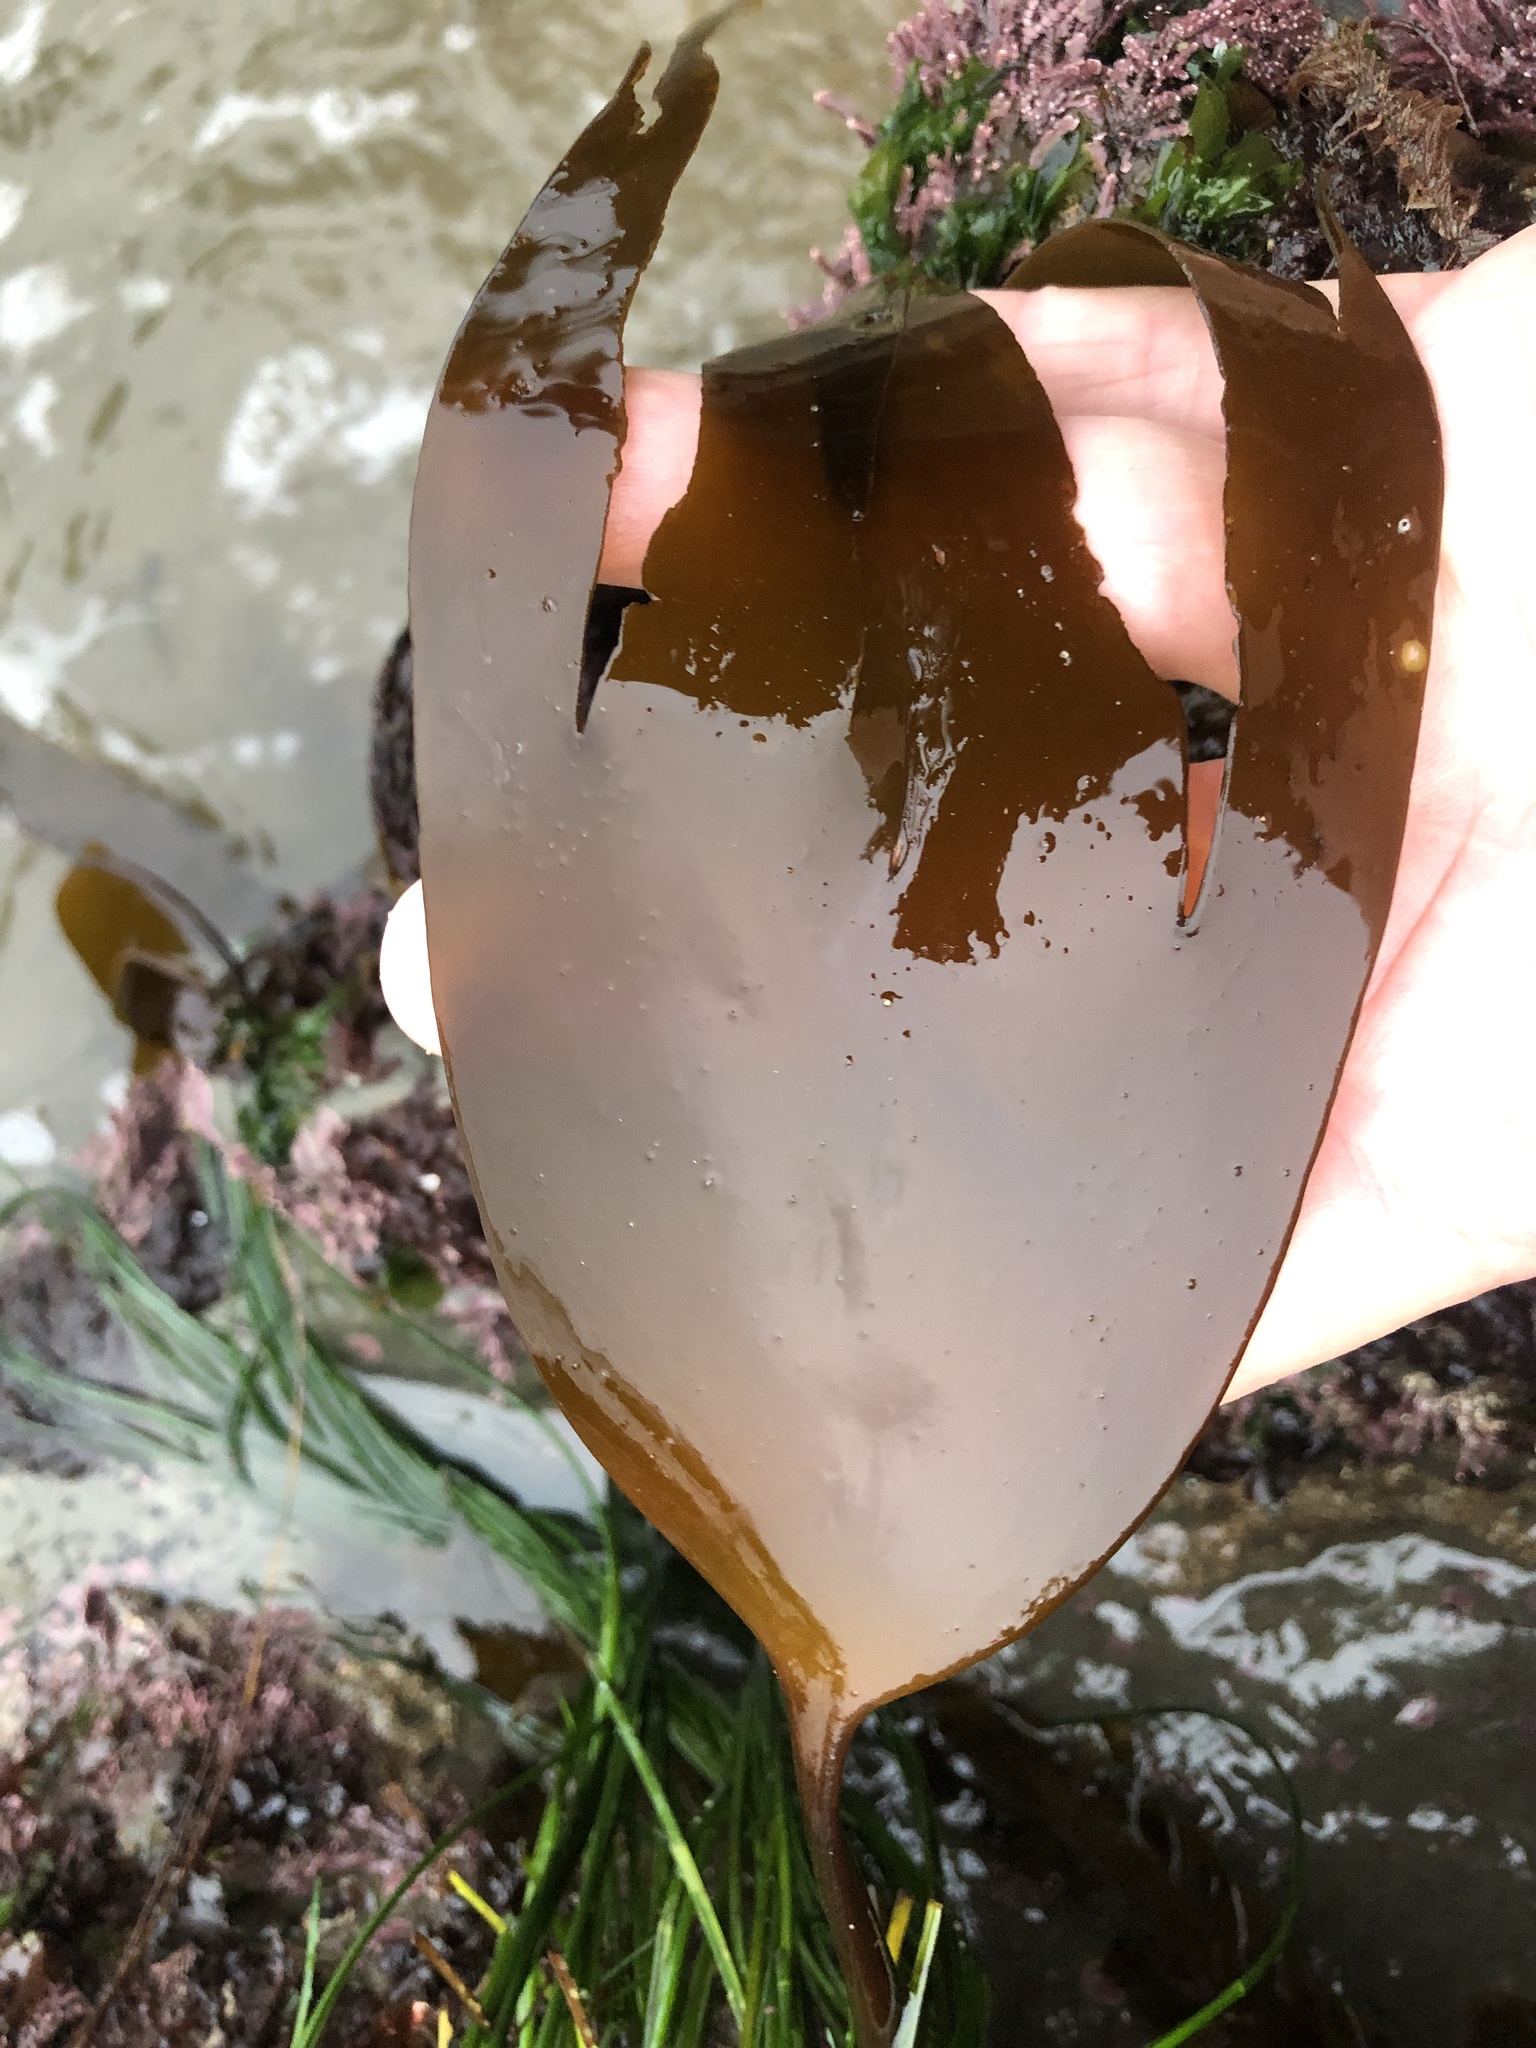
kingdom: Chromista
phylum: Ochrophyta
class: Phaeophyceae
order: Laminariales
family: Laminariaceae
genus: Laminaria
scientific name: Laminaria setchellii
